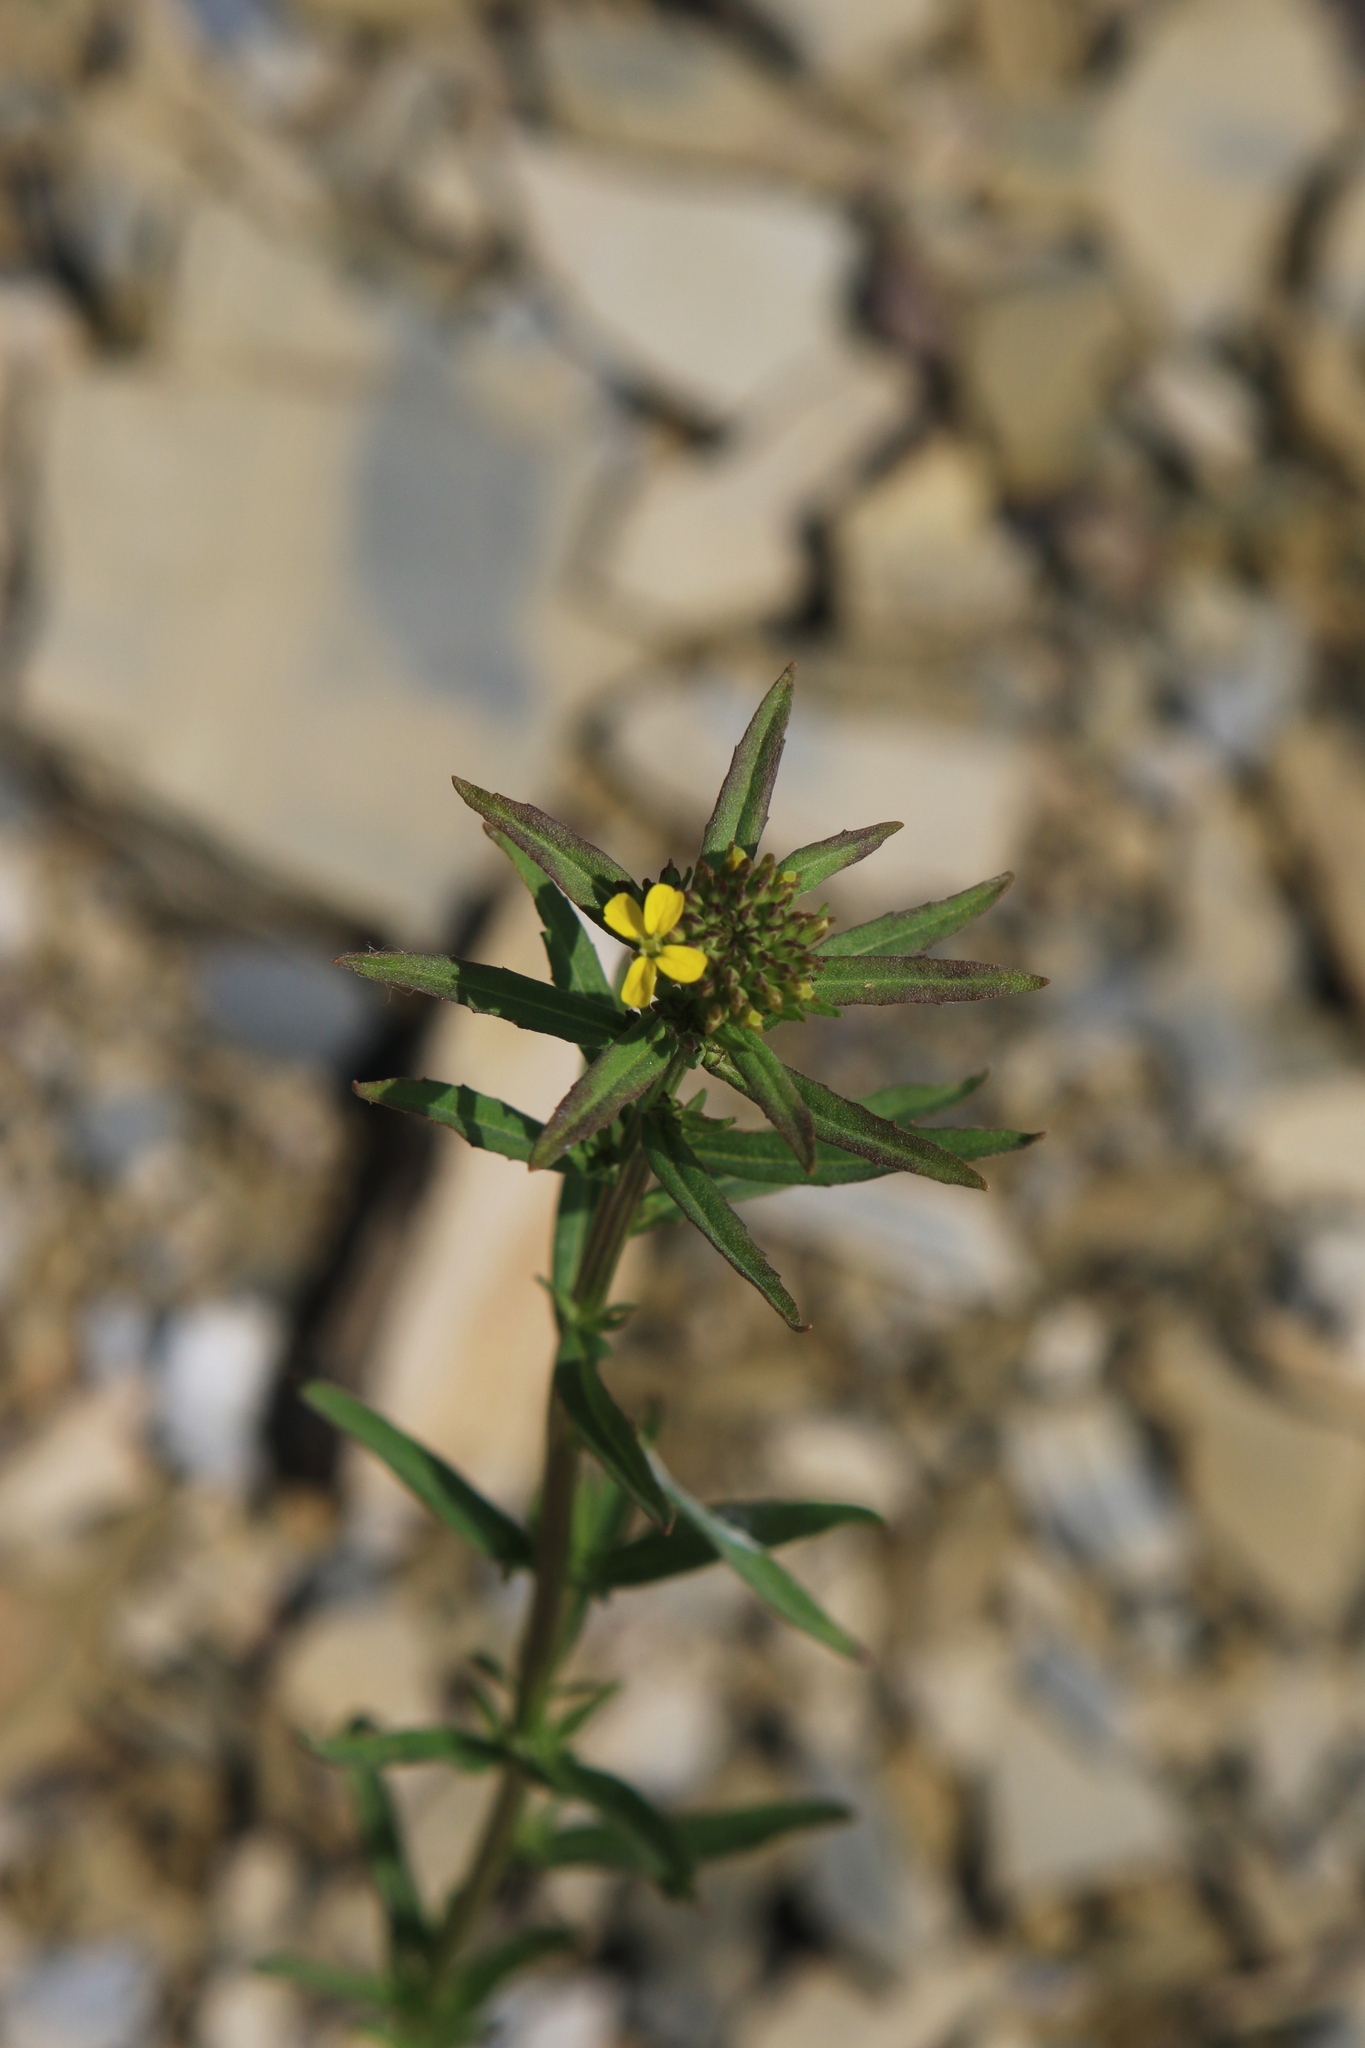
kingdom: Plantae
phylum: Tracheophyta
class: Magnoliopsida
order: Brassicales
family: Brassicaceae
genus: Erysimum
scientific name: Erysimum hieraciifolium
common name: European wallflower
